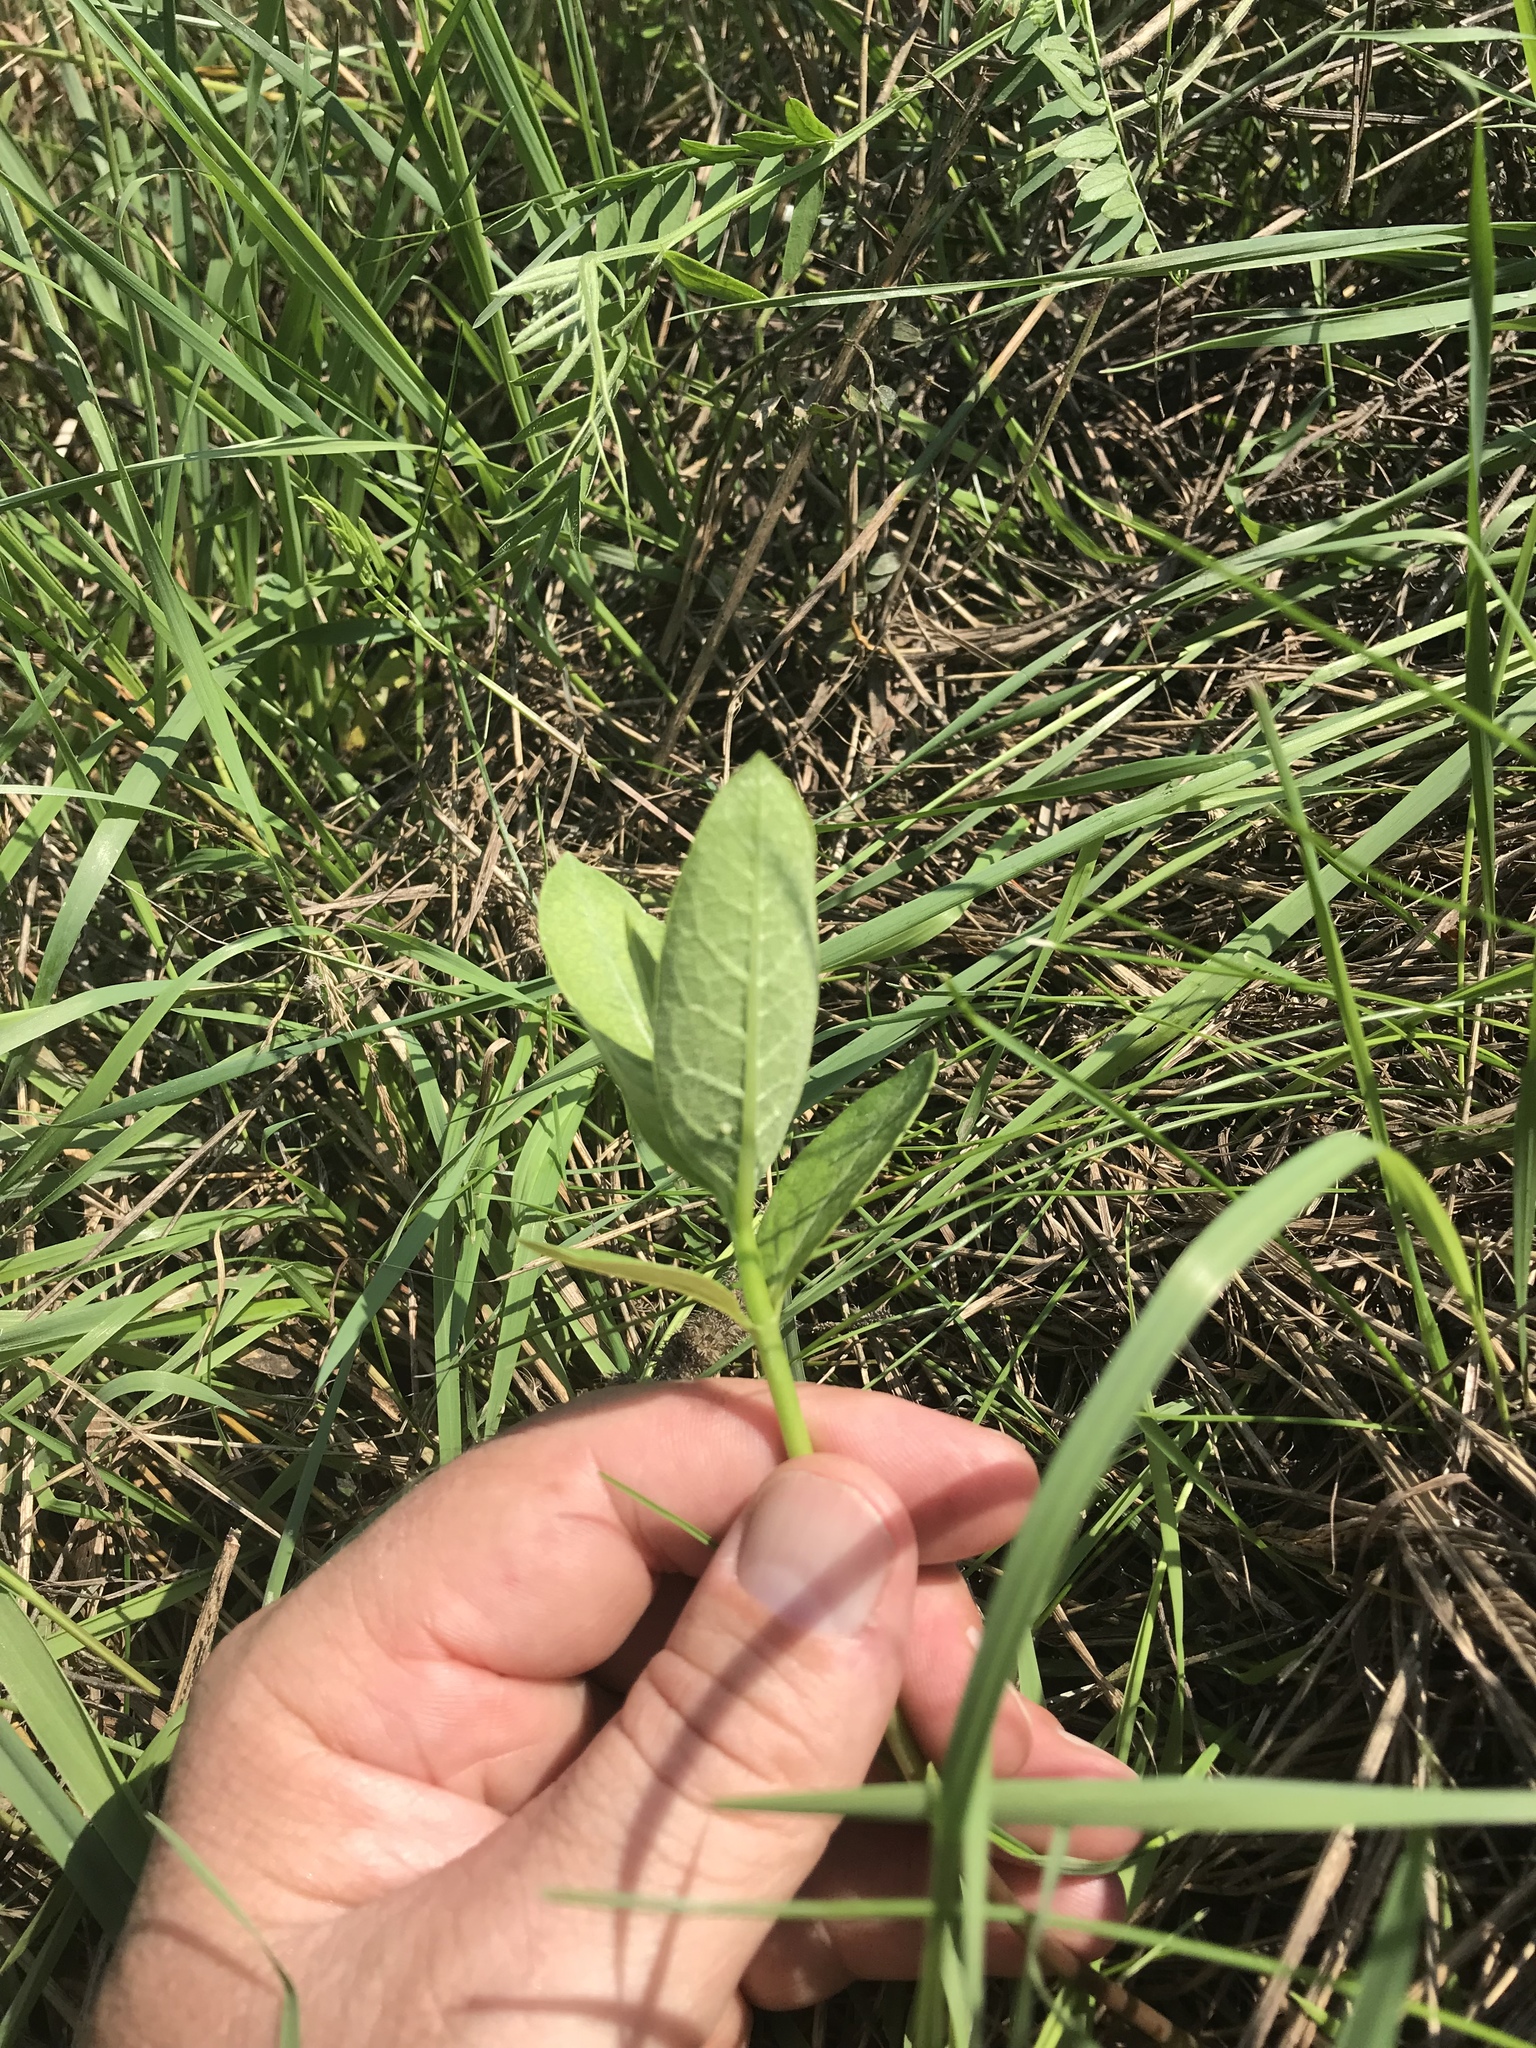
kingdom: Animalia
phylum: Arthropoda
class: Insecta
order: Lepidoptera
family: Nymphalidae
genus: Danaus
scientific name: Danaus plexippus
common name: Monarch
